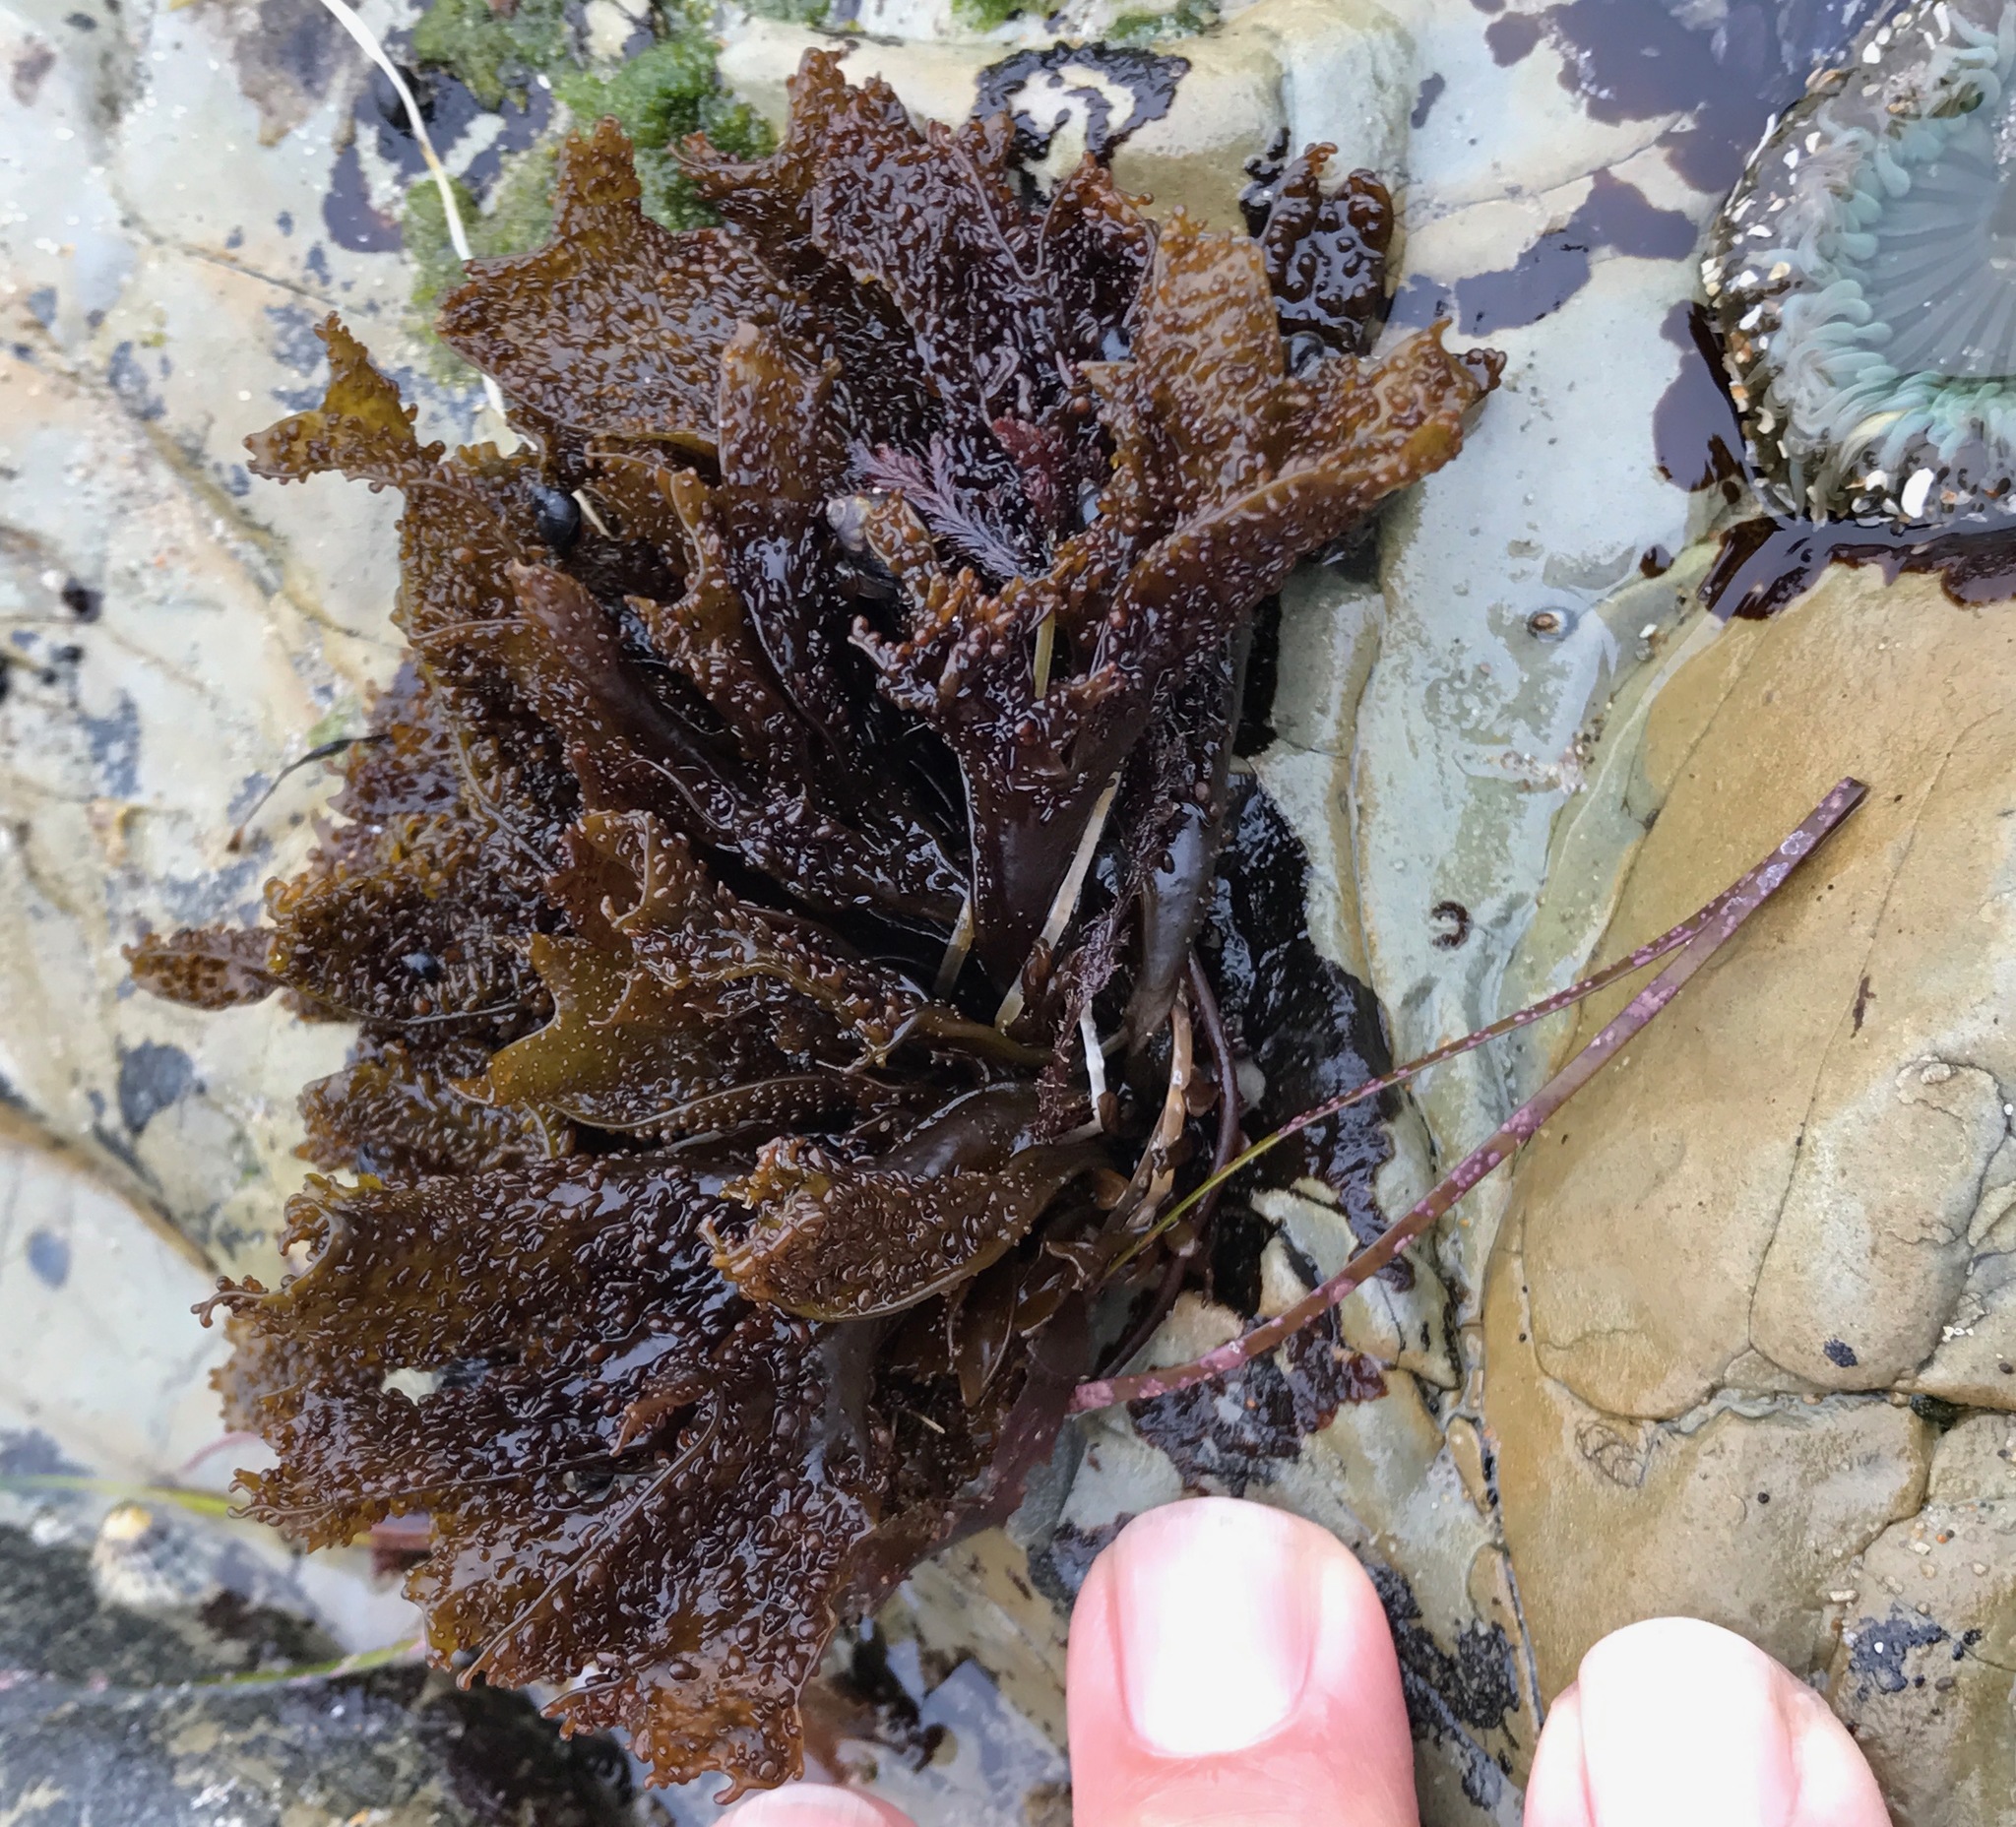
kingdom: Plantae
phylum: Rhodophyta
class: Florideophyceae
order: Gigartinales
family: Phyllophoraceae
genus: Mastocarpus
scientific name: Mastocarpus papillatus
